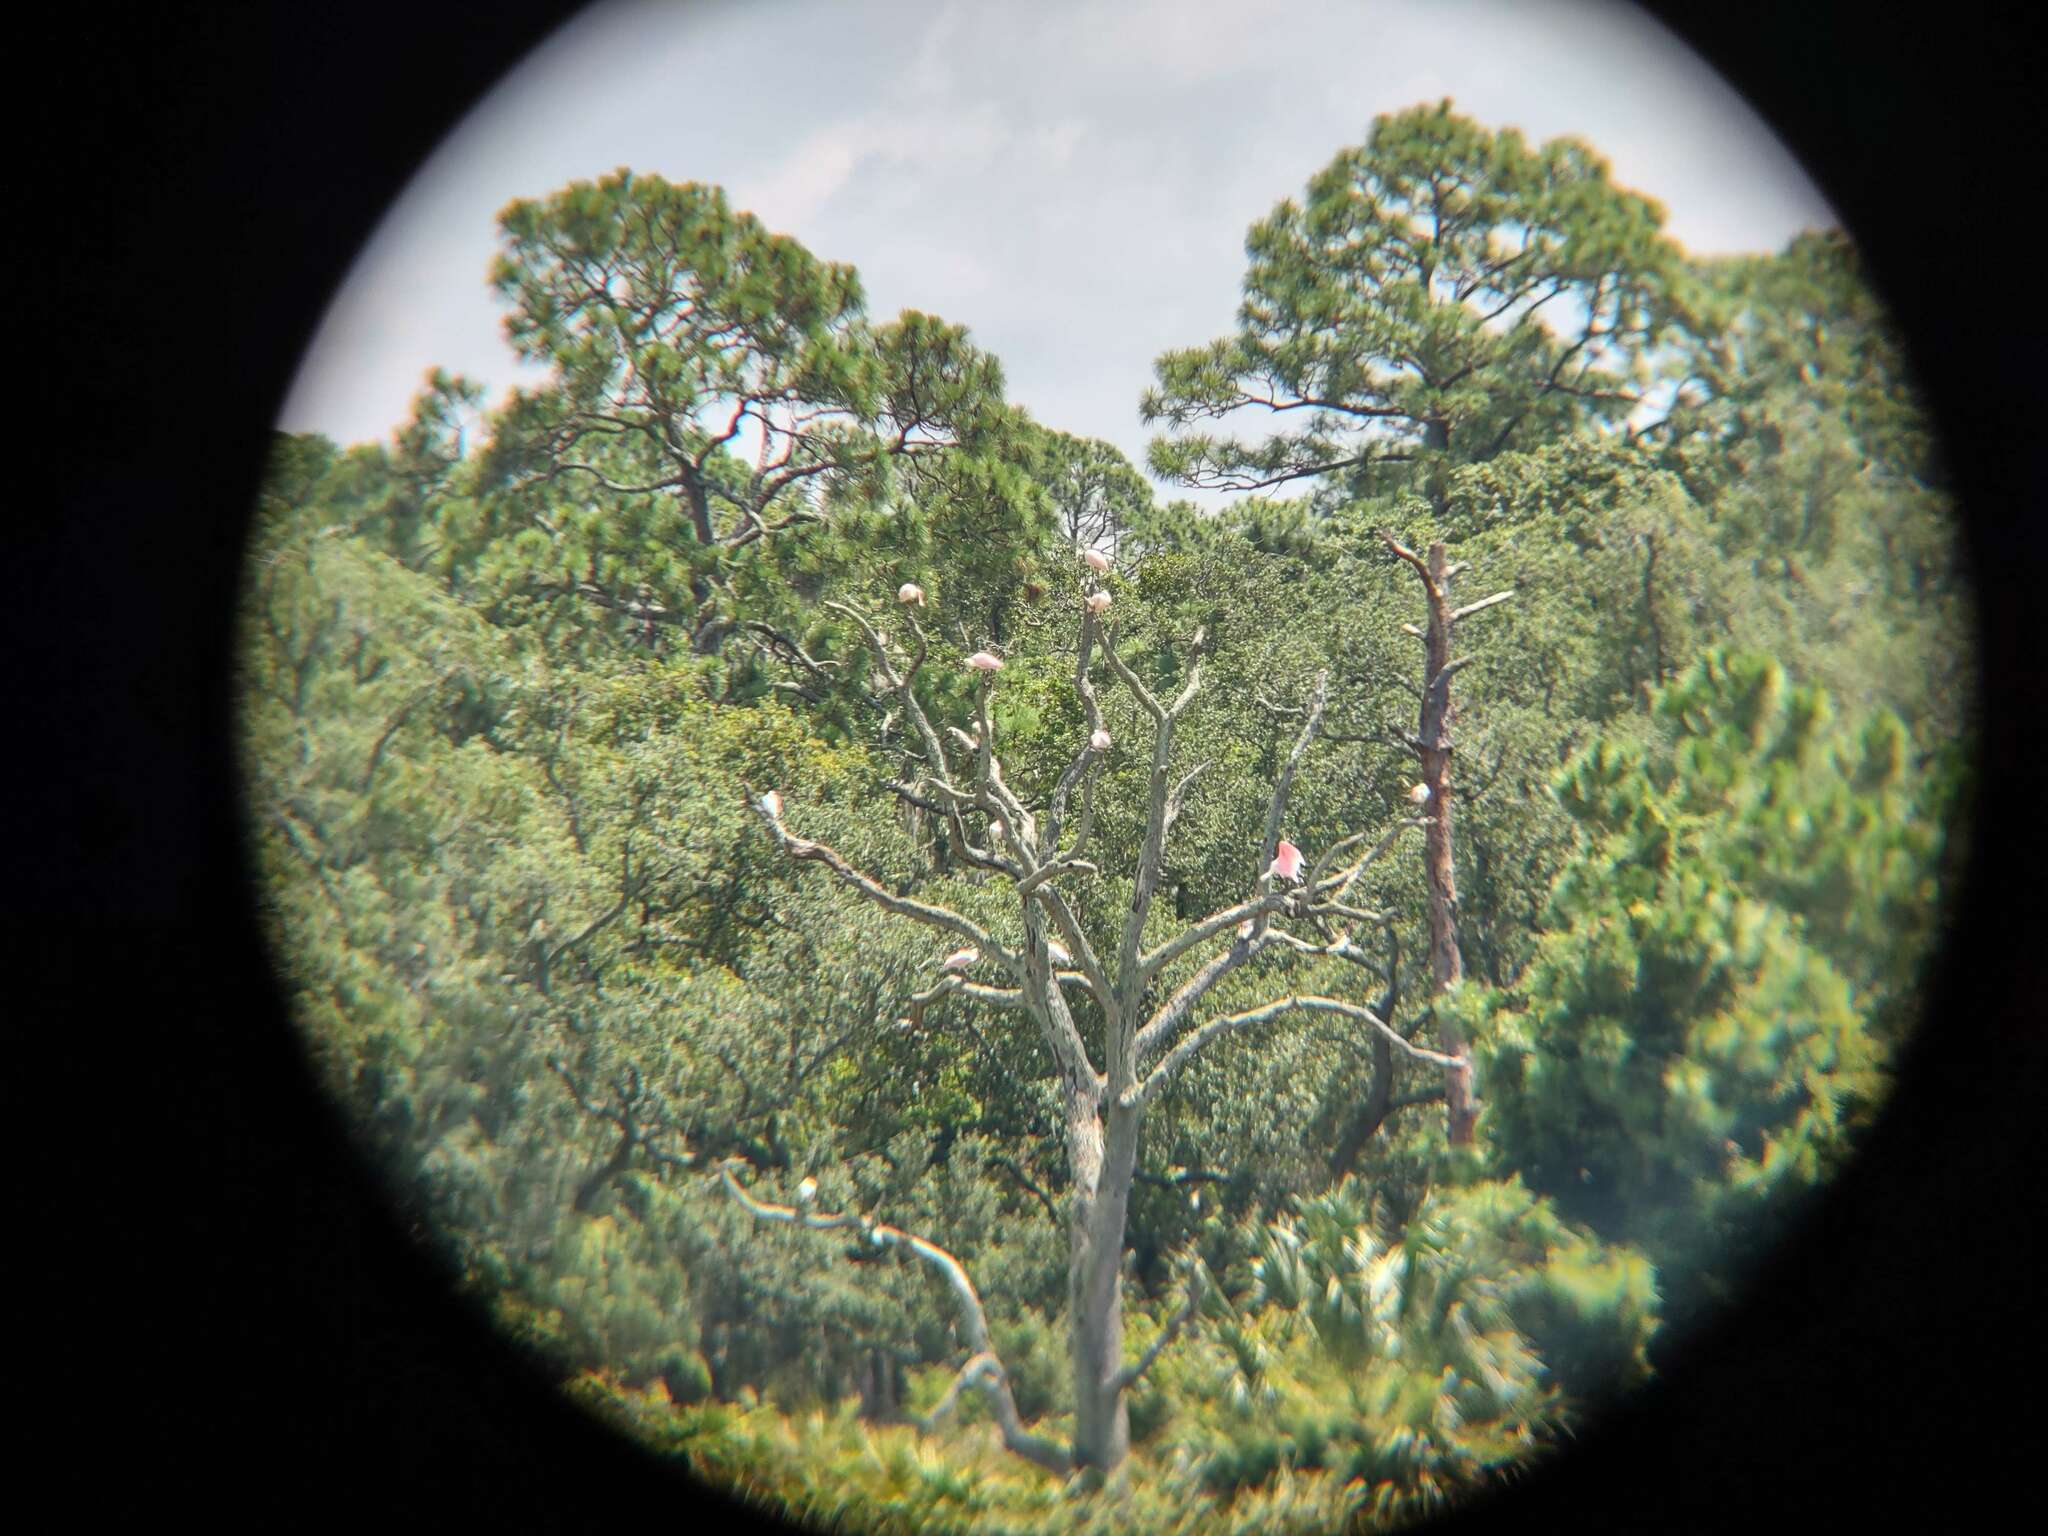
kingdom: Animalia
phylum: Chordata
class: Aves
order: Pelecaniformes
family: Threskiornithidae
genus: Platalea
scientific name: Platalea ajaja
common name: Roseate spoonbill
